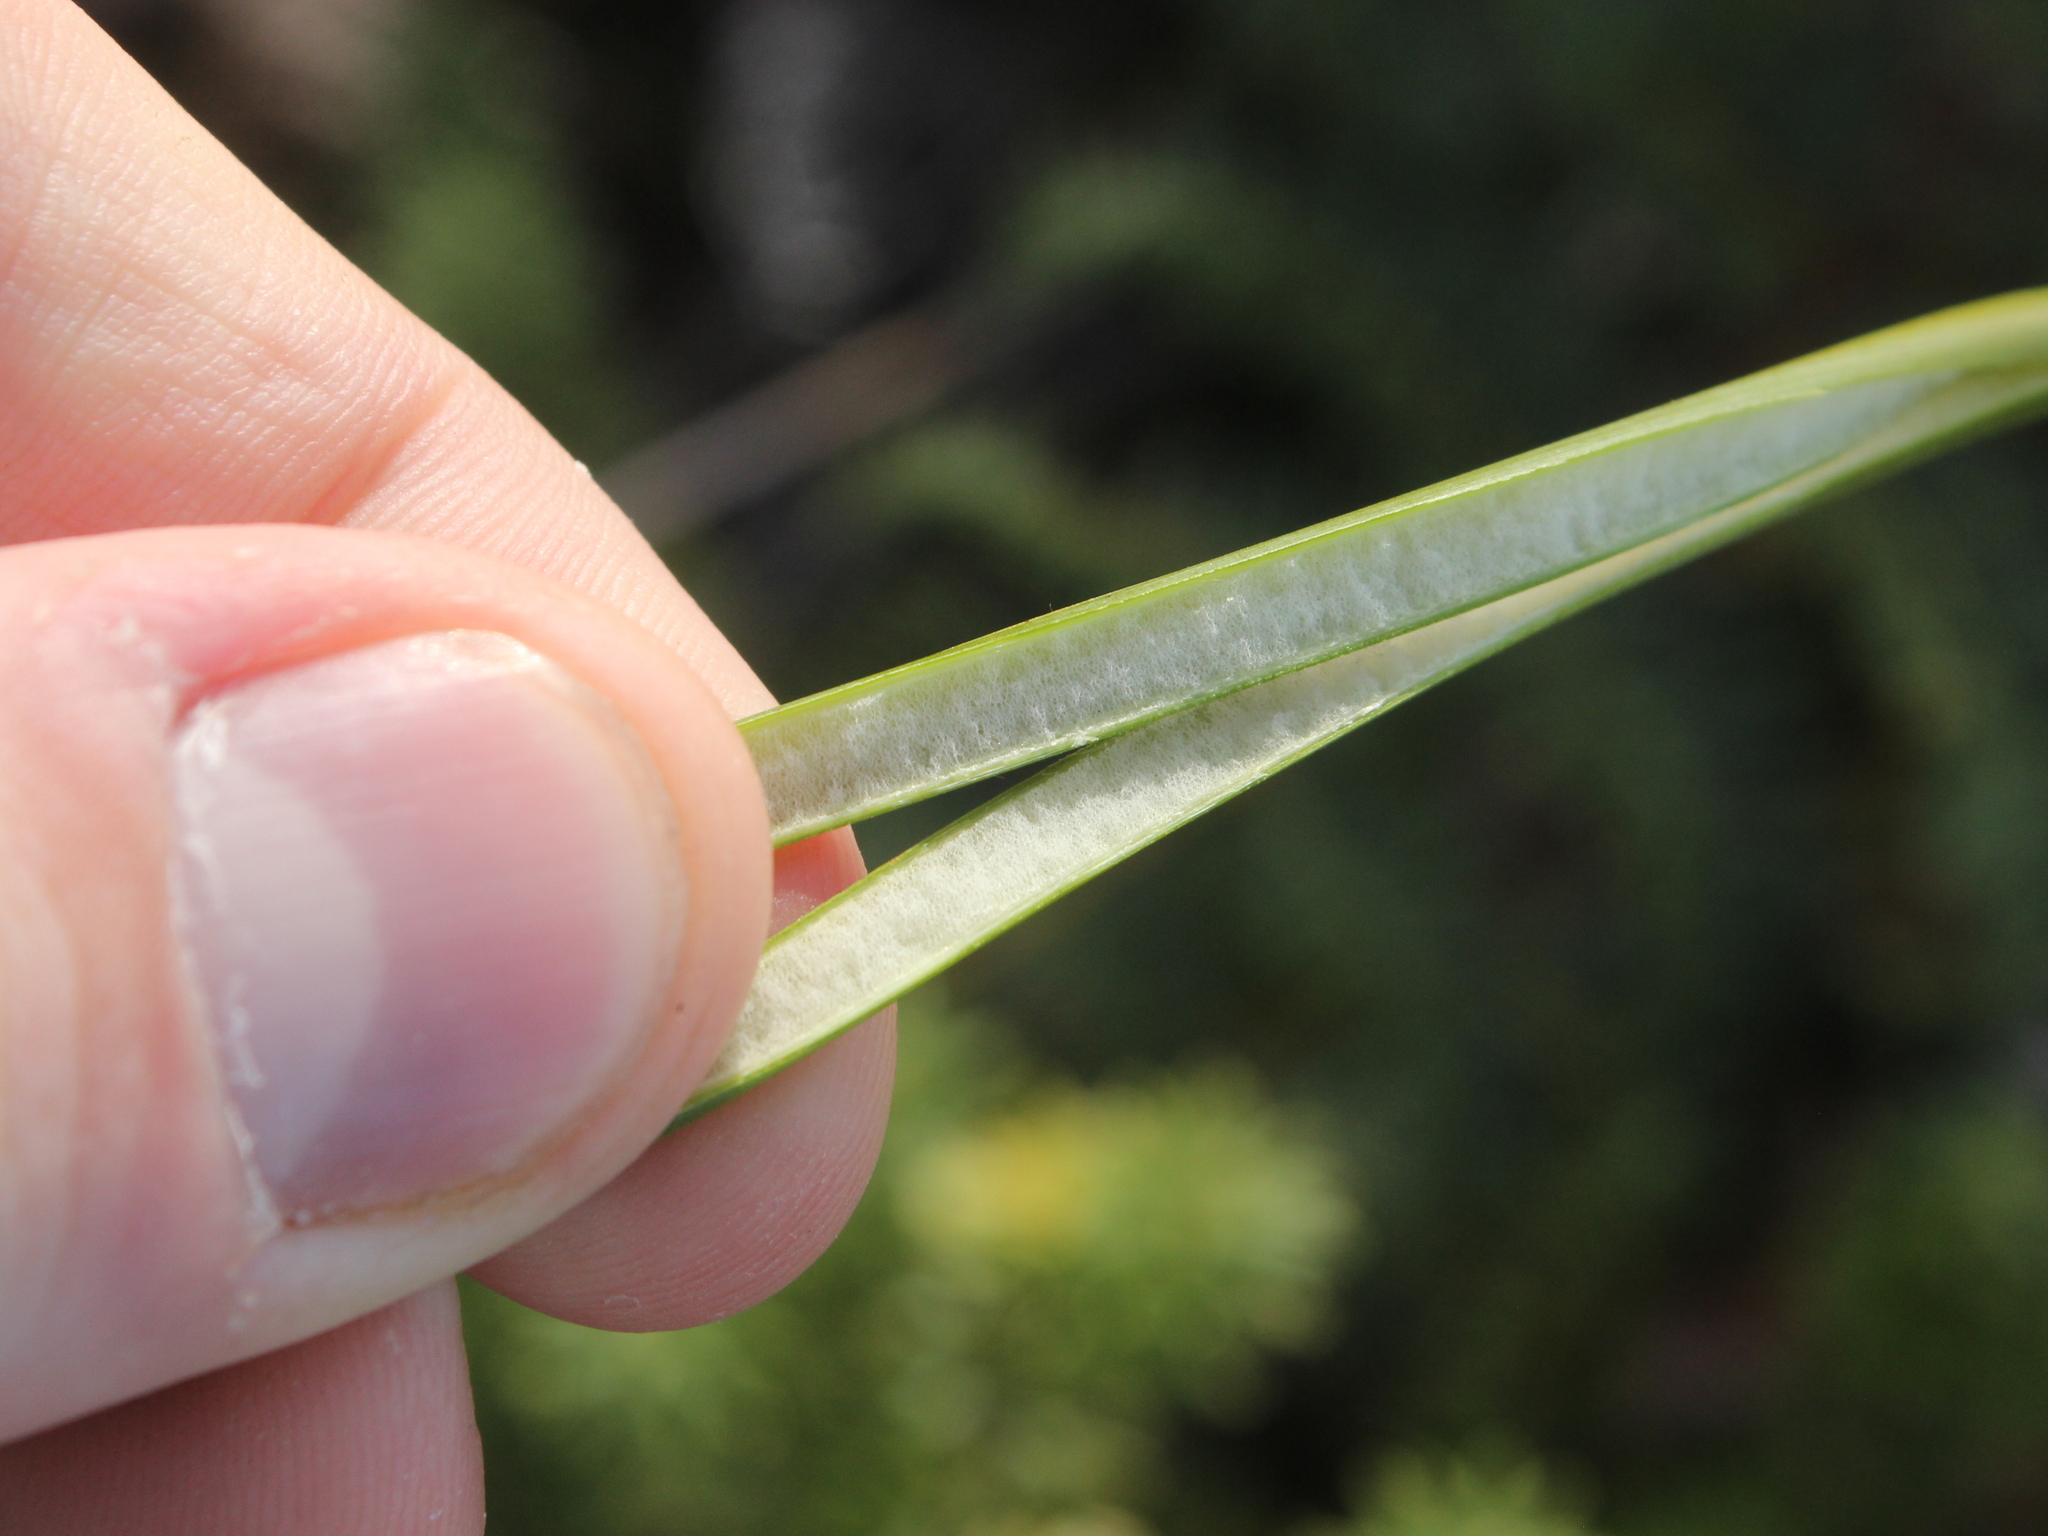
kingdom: Plantae
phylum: Tracheophyta
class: Liliopsida
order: Poales
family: Juncaceae
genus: Juncus
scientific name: Juncus pallidus
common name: Great soft-rush
